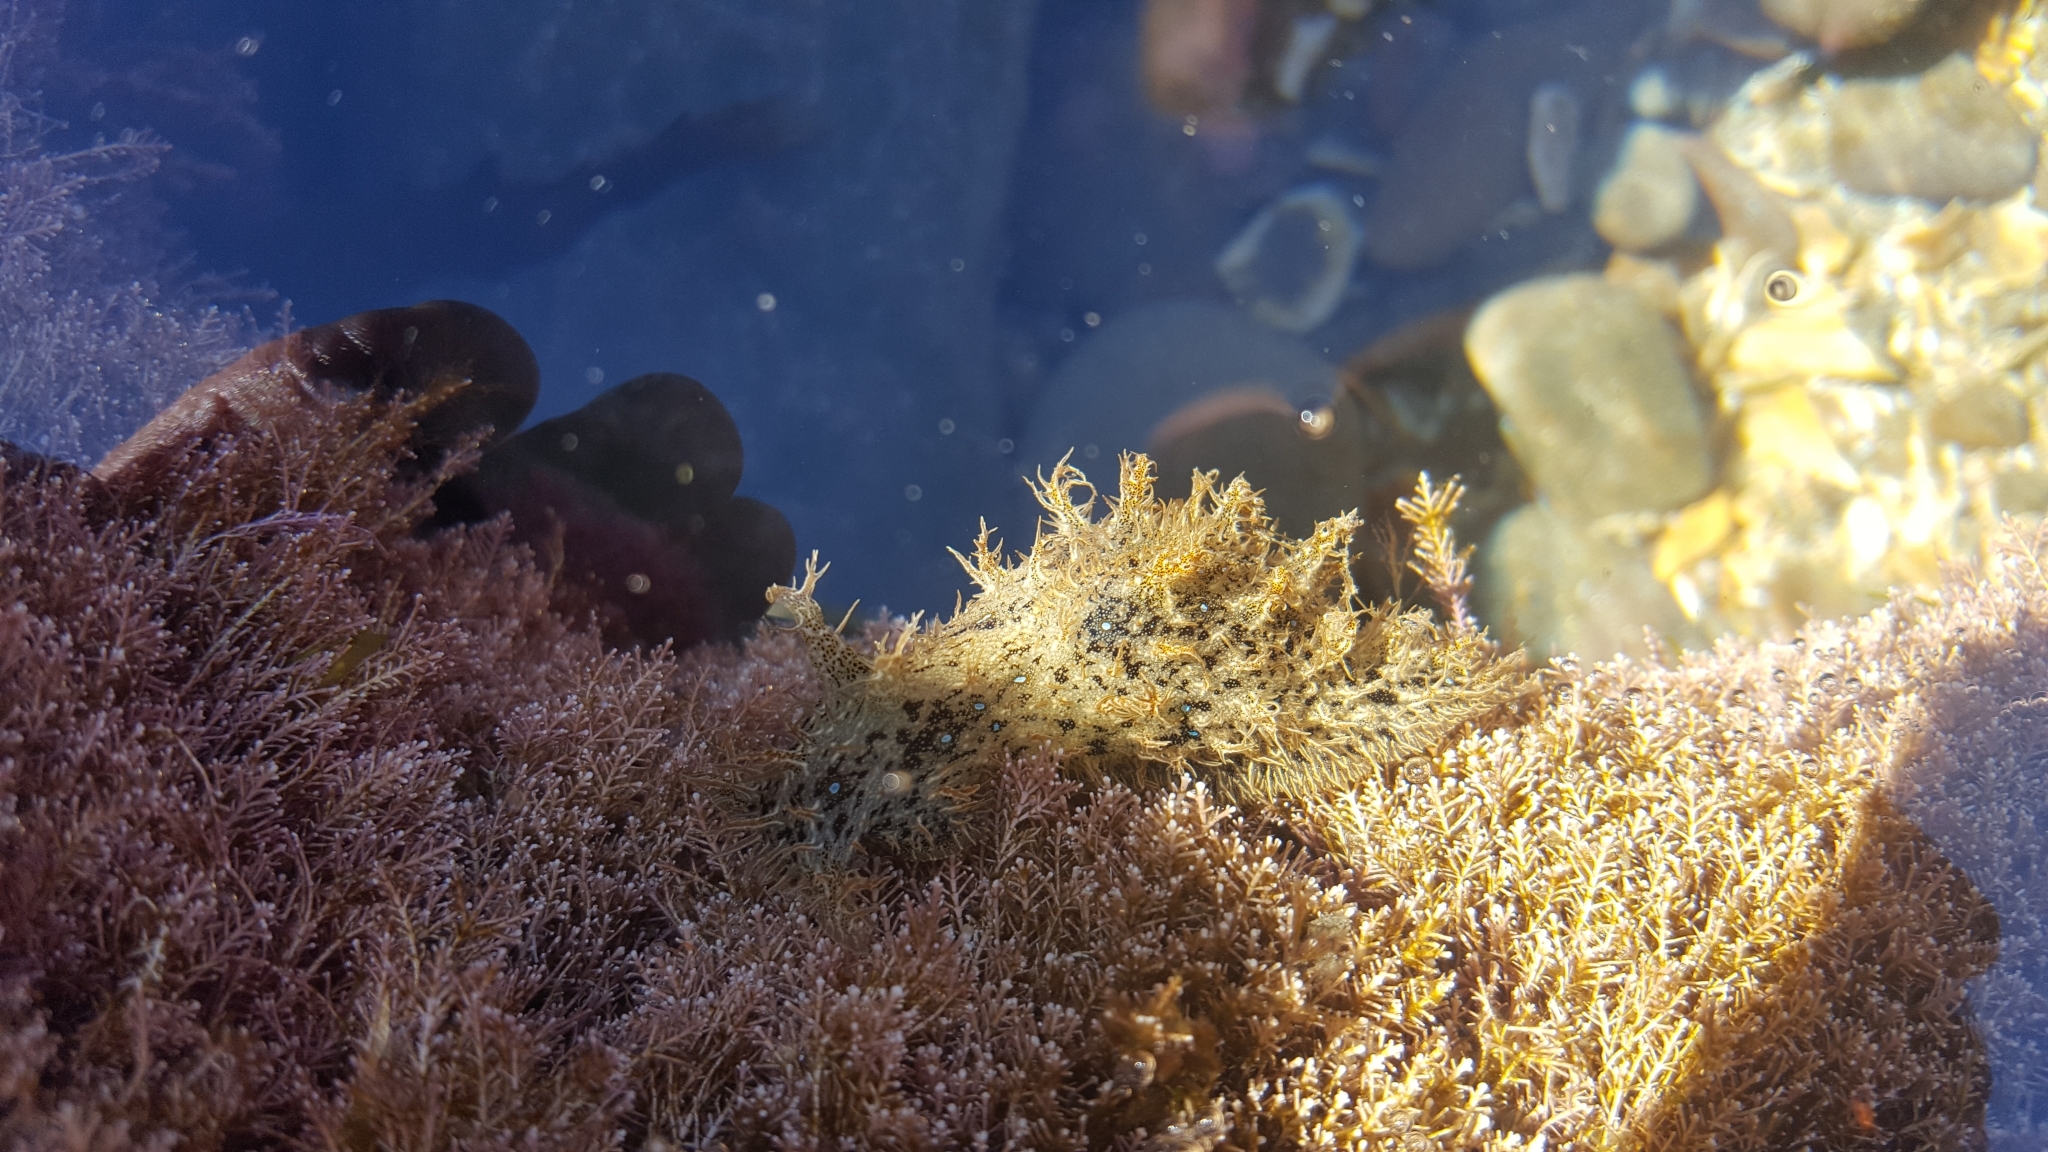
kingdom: Animalia
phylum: Mollusca
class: Gastropoda
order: Aplysiida
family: Aplysiidae
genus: Bursatella
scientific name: Bursatella leachii
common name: Shaggy sea hare
